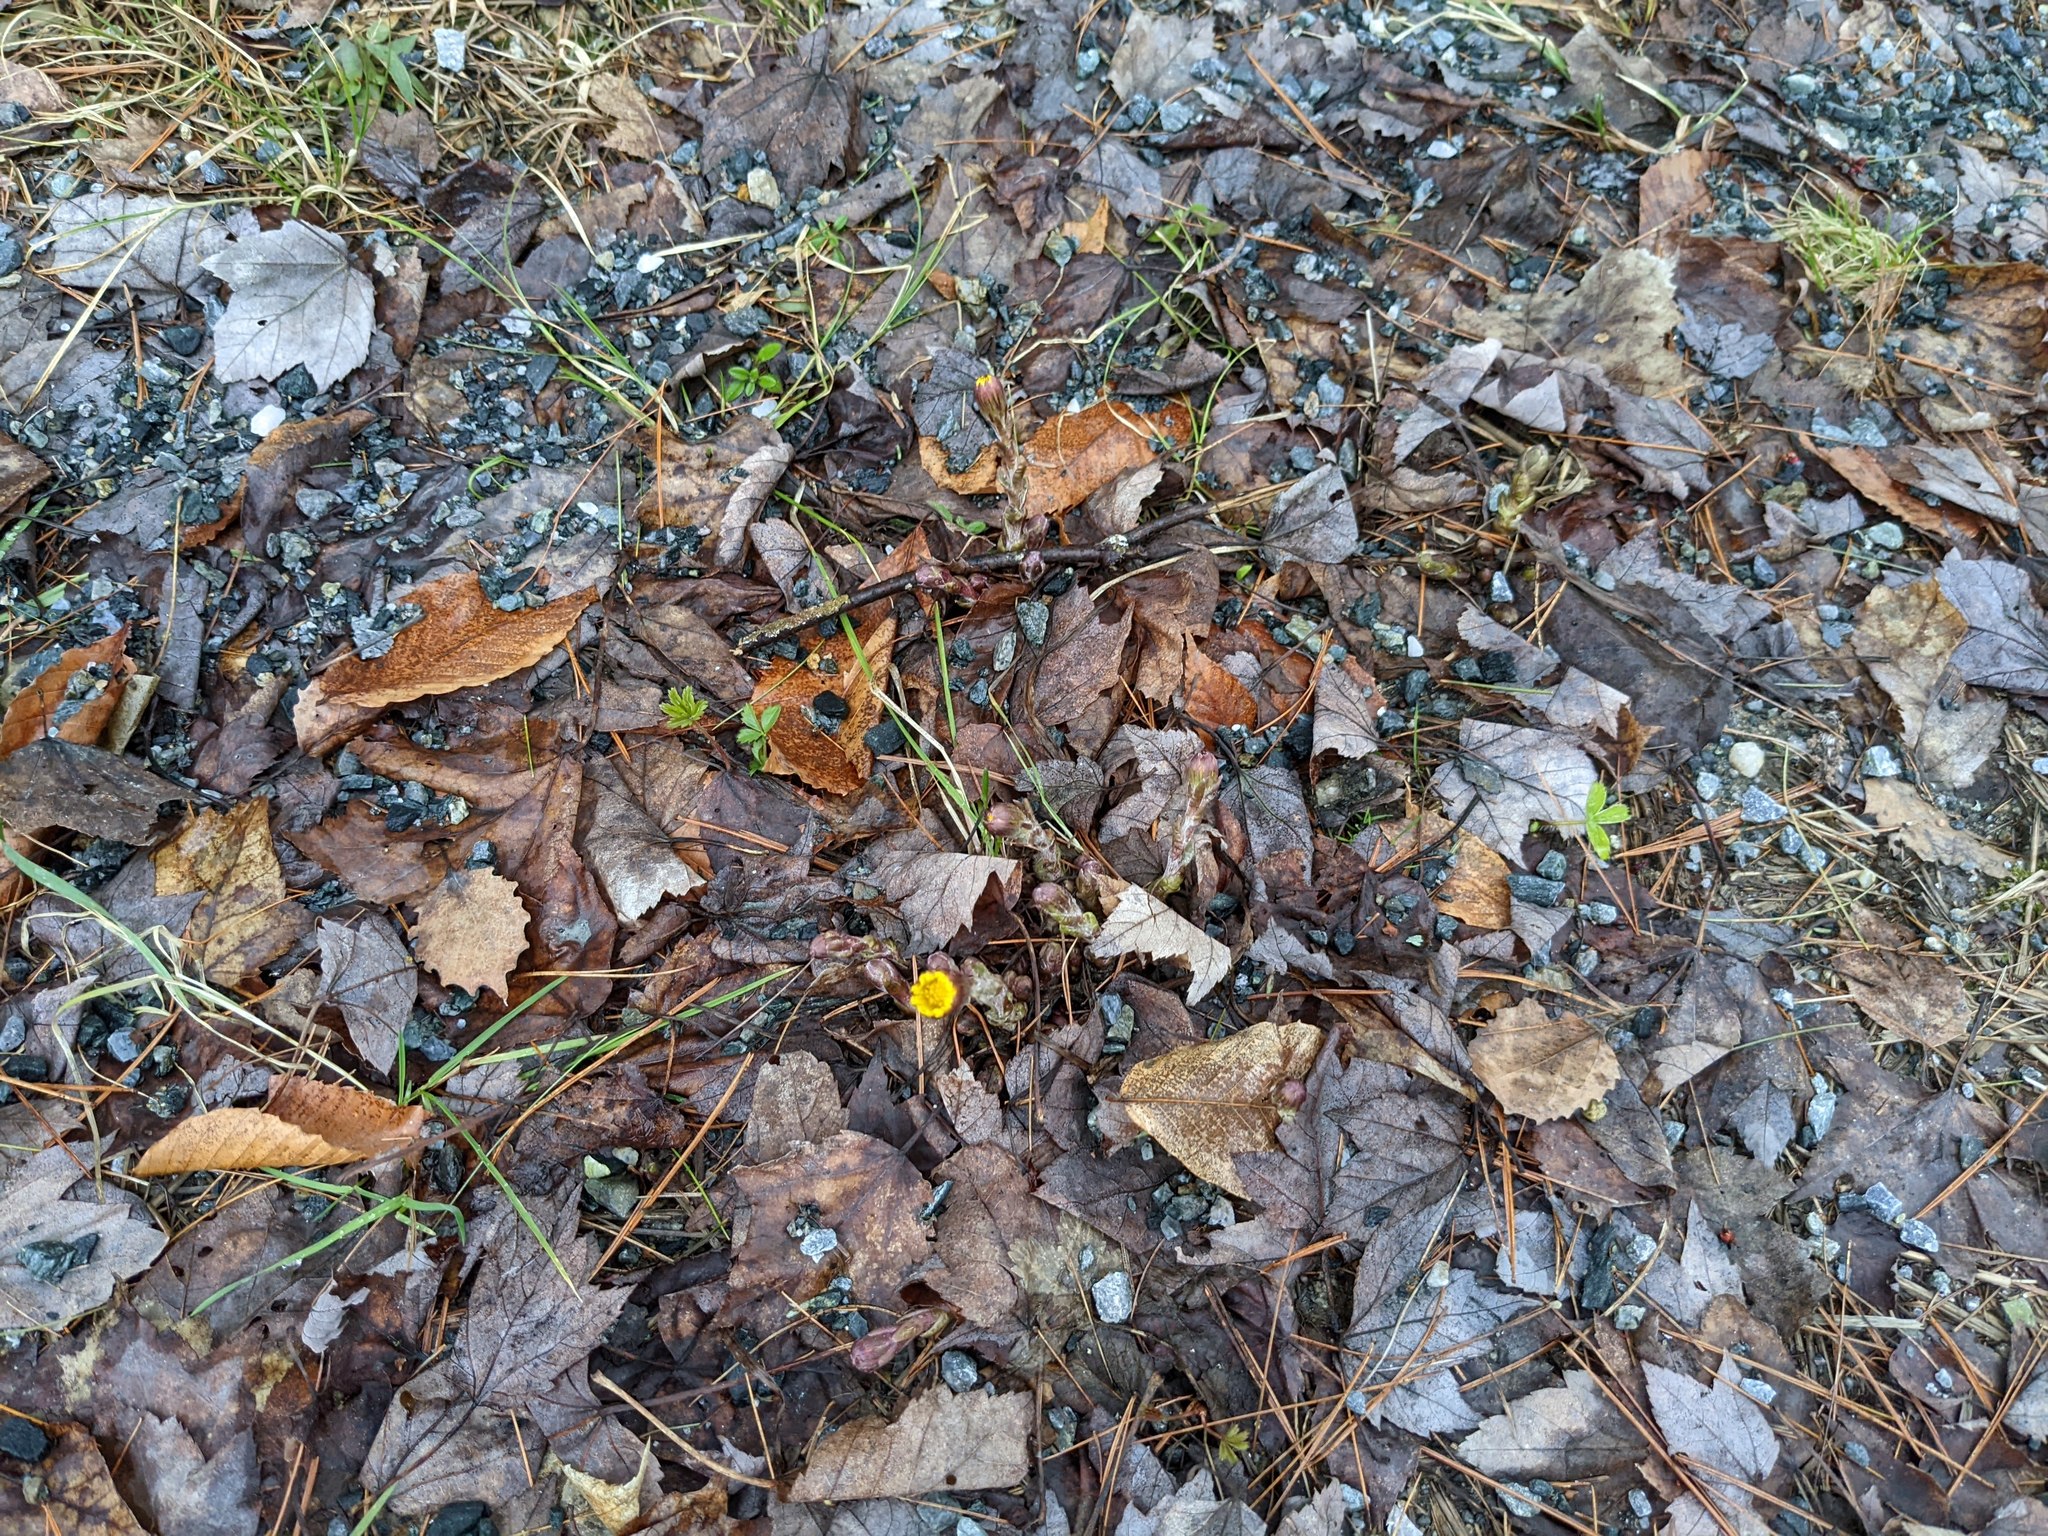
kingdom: Plantae
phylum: Tracheophyta
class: Magnoliopsida
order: Asterales
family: Asteraceae
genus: Tussilago
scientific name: Tussilago farfara
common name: Coltsfoot
